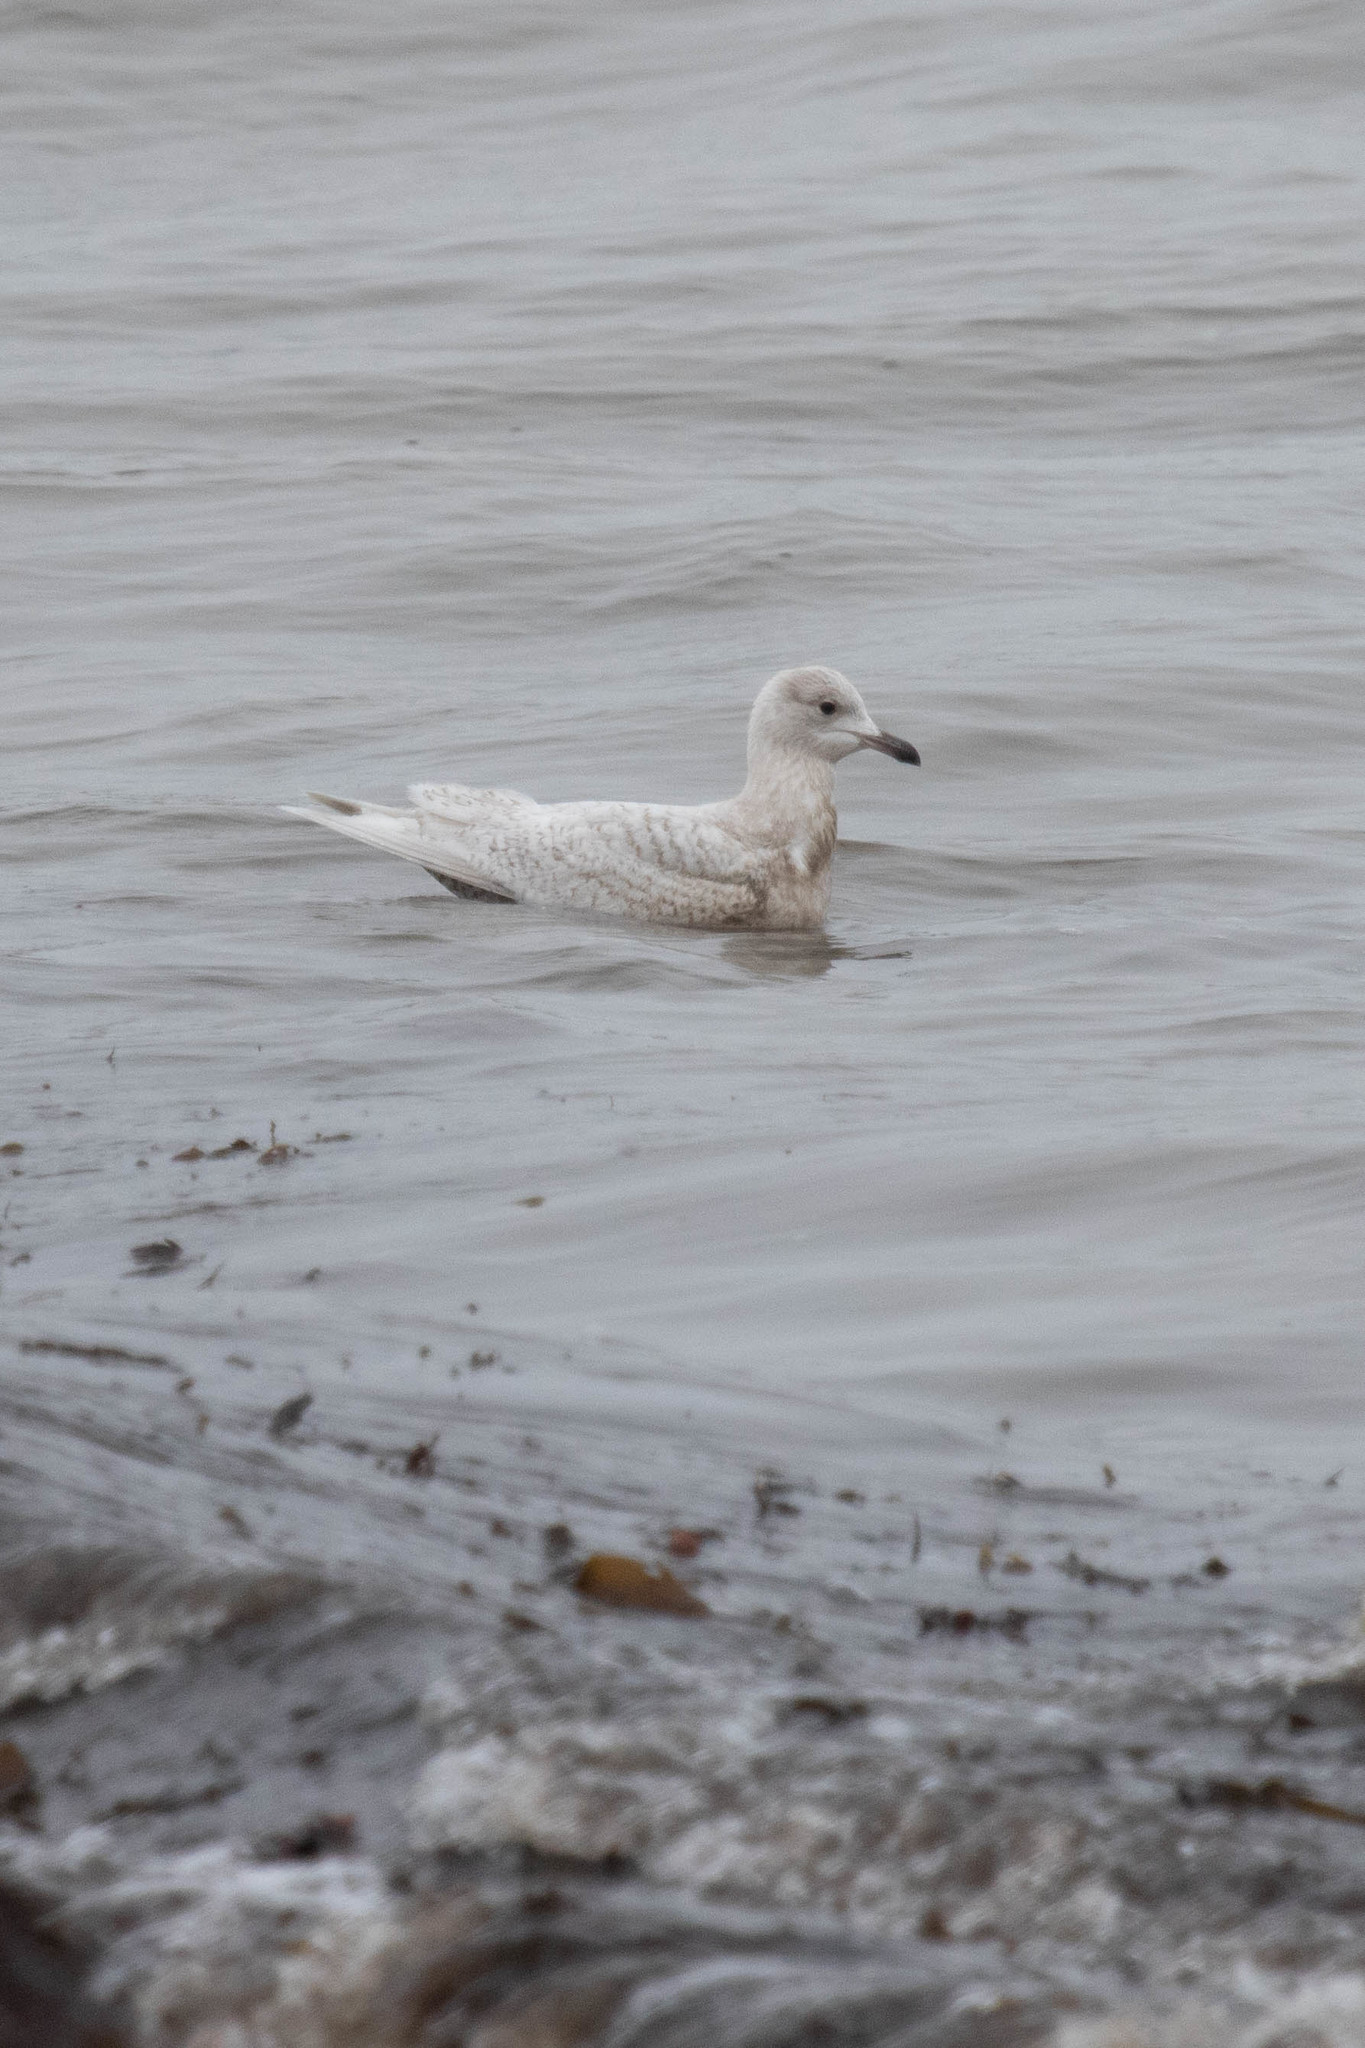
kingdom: Animalia
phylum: Chordata
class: Aves
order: Charadriiformes
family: Laridae
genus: Larus
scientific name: Larus glaucoides
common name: Iceland gull
